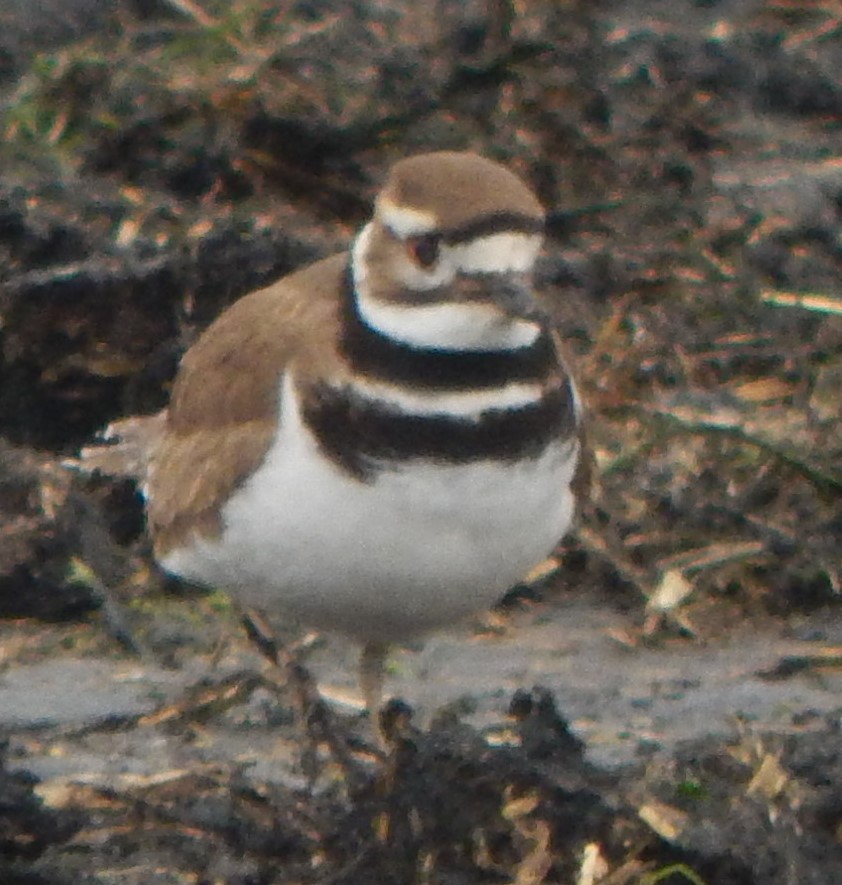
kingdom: Animalia
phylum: Chordata
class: Aves
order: Charadriiformes
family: Charadriidae
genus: Charadrius
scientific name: Charadrius vociferus
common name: Killdeer
